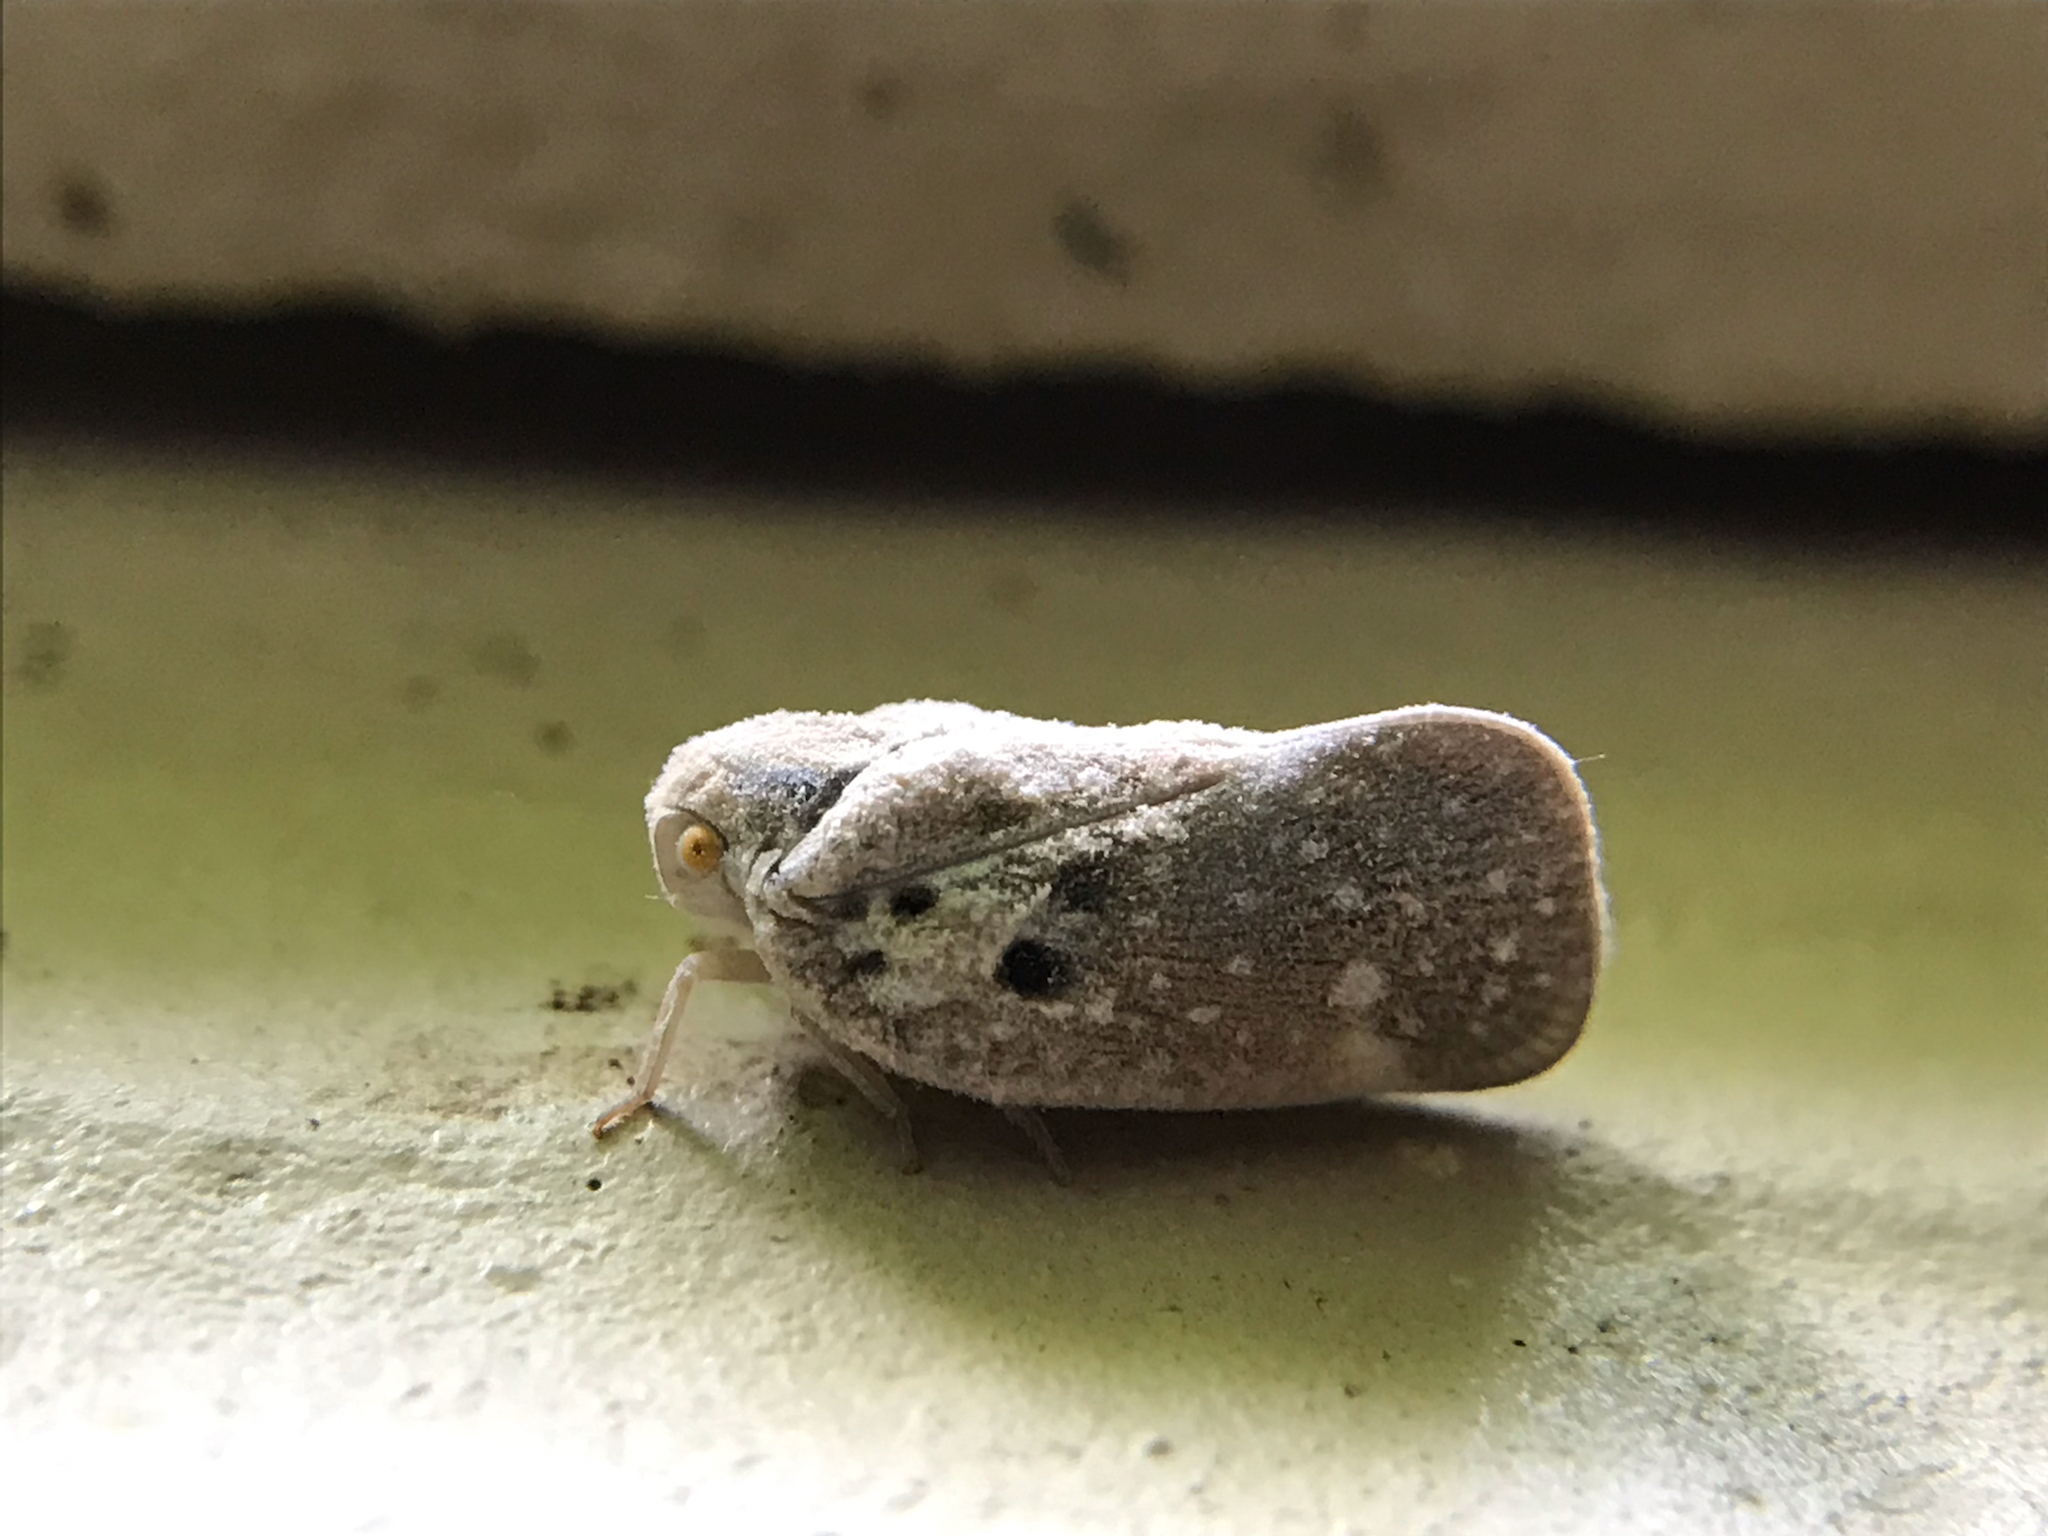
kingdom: Animalia
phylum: Arthropoda
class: Insecta
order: Hemiptera
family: Flatidae
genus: Metcalfa
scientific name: Metcalfa pruinosa
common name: Citrus flatid planthopper
